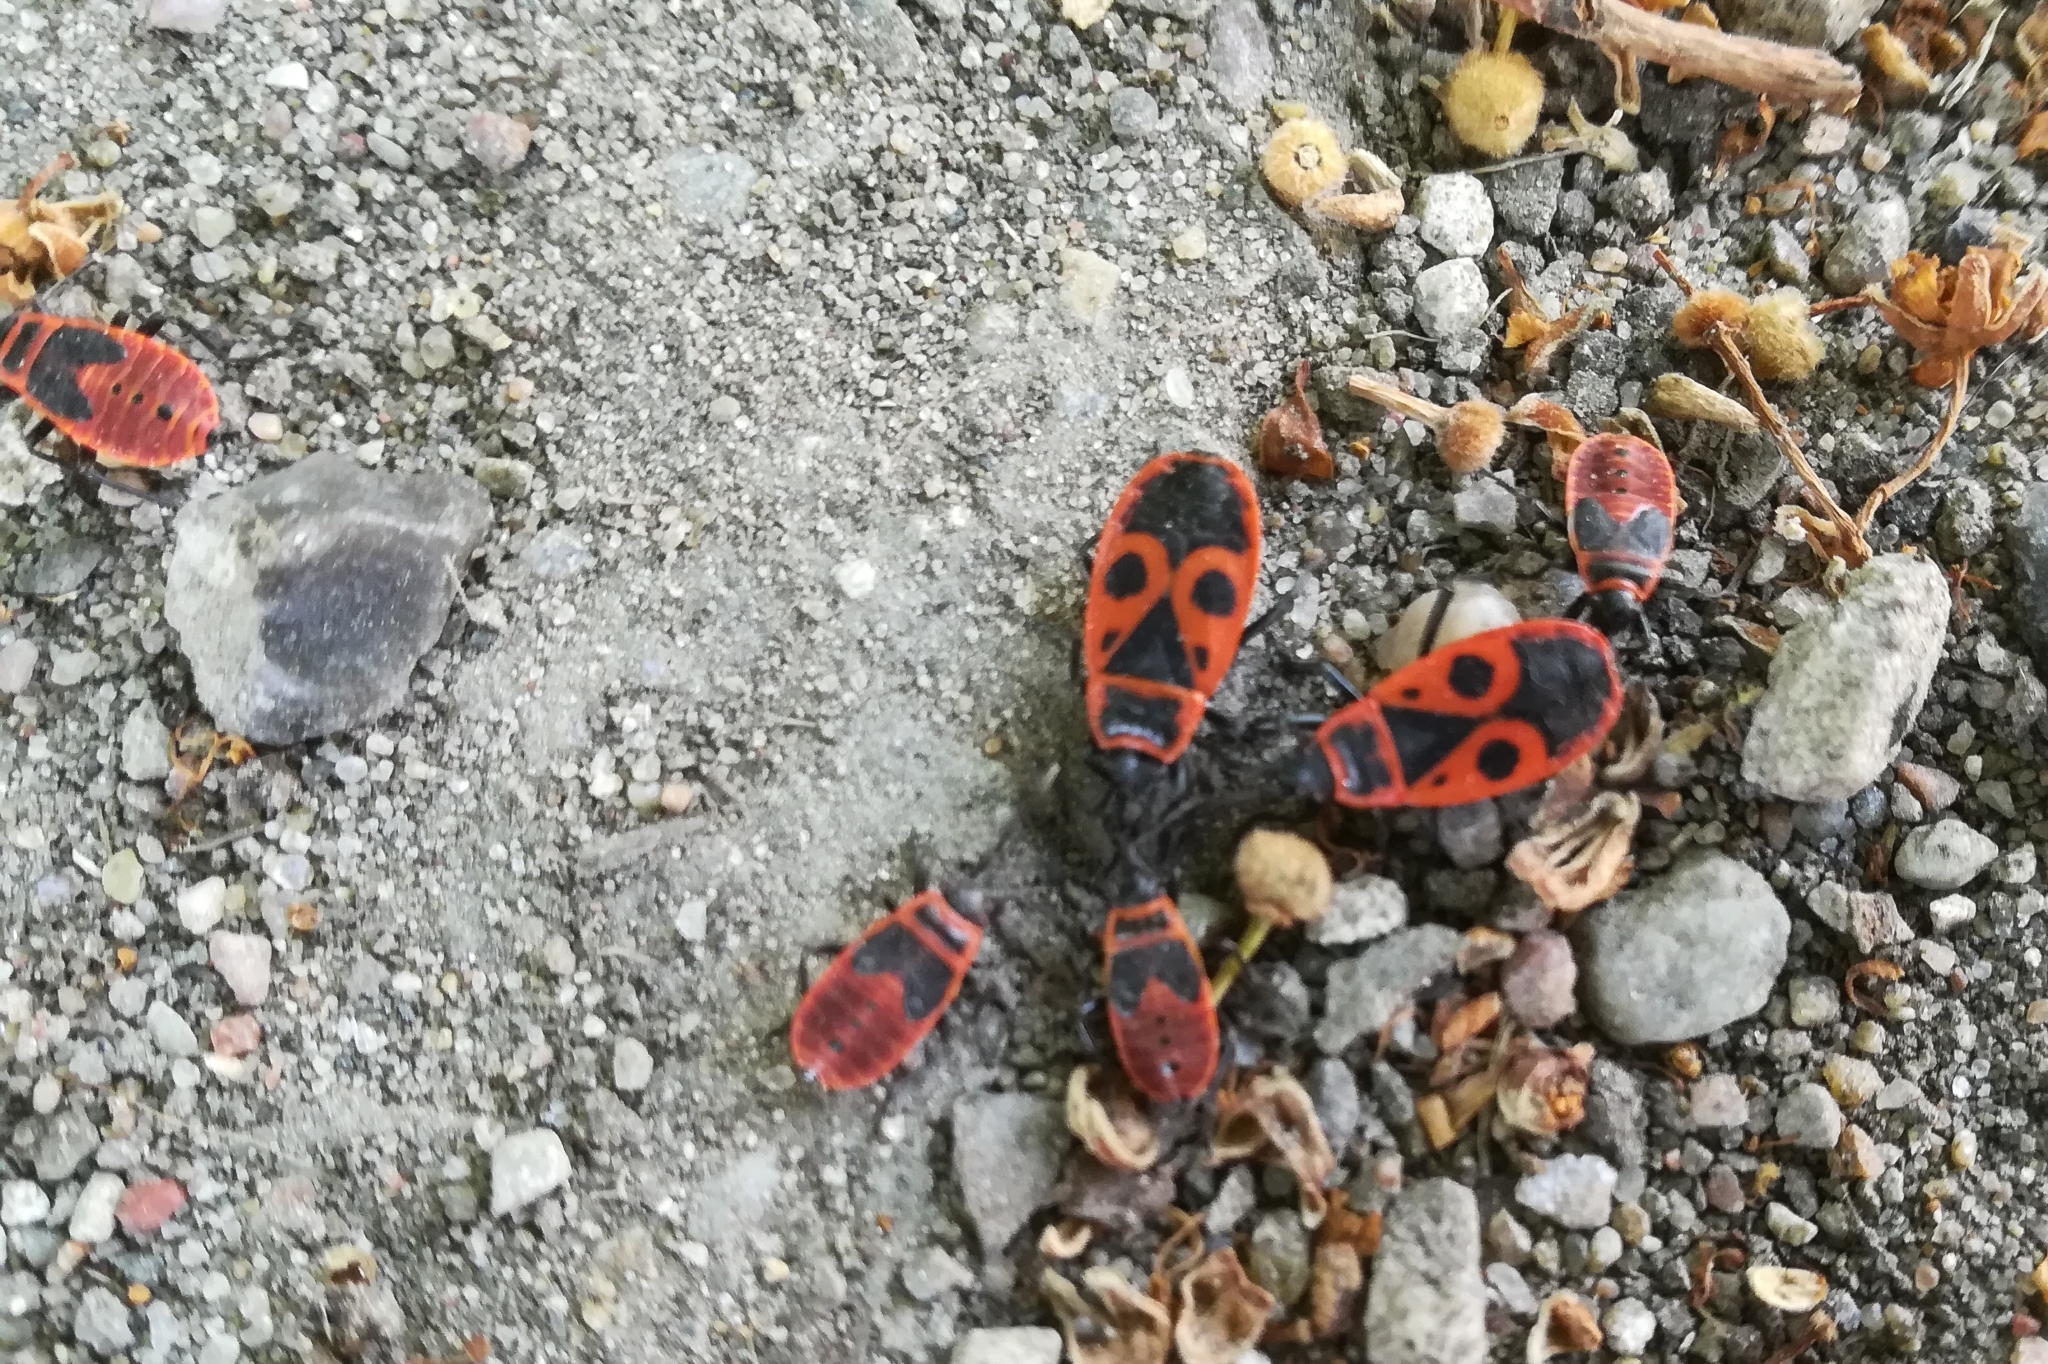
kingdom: Animalia
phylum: Arthropoda
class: Insecta
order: Hemiptera
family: Pyrrhocoridae
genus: Pyrrhocoris
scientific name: Pyrrhocoris apterus
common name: Firebug
